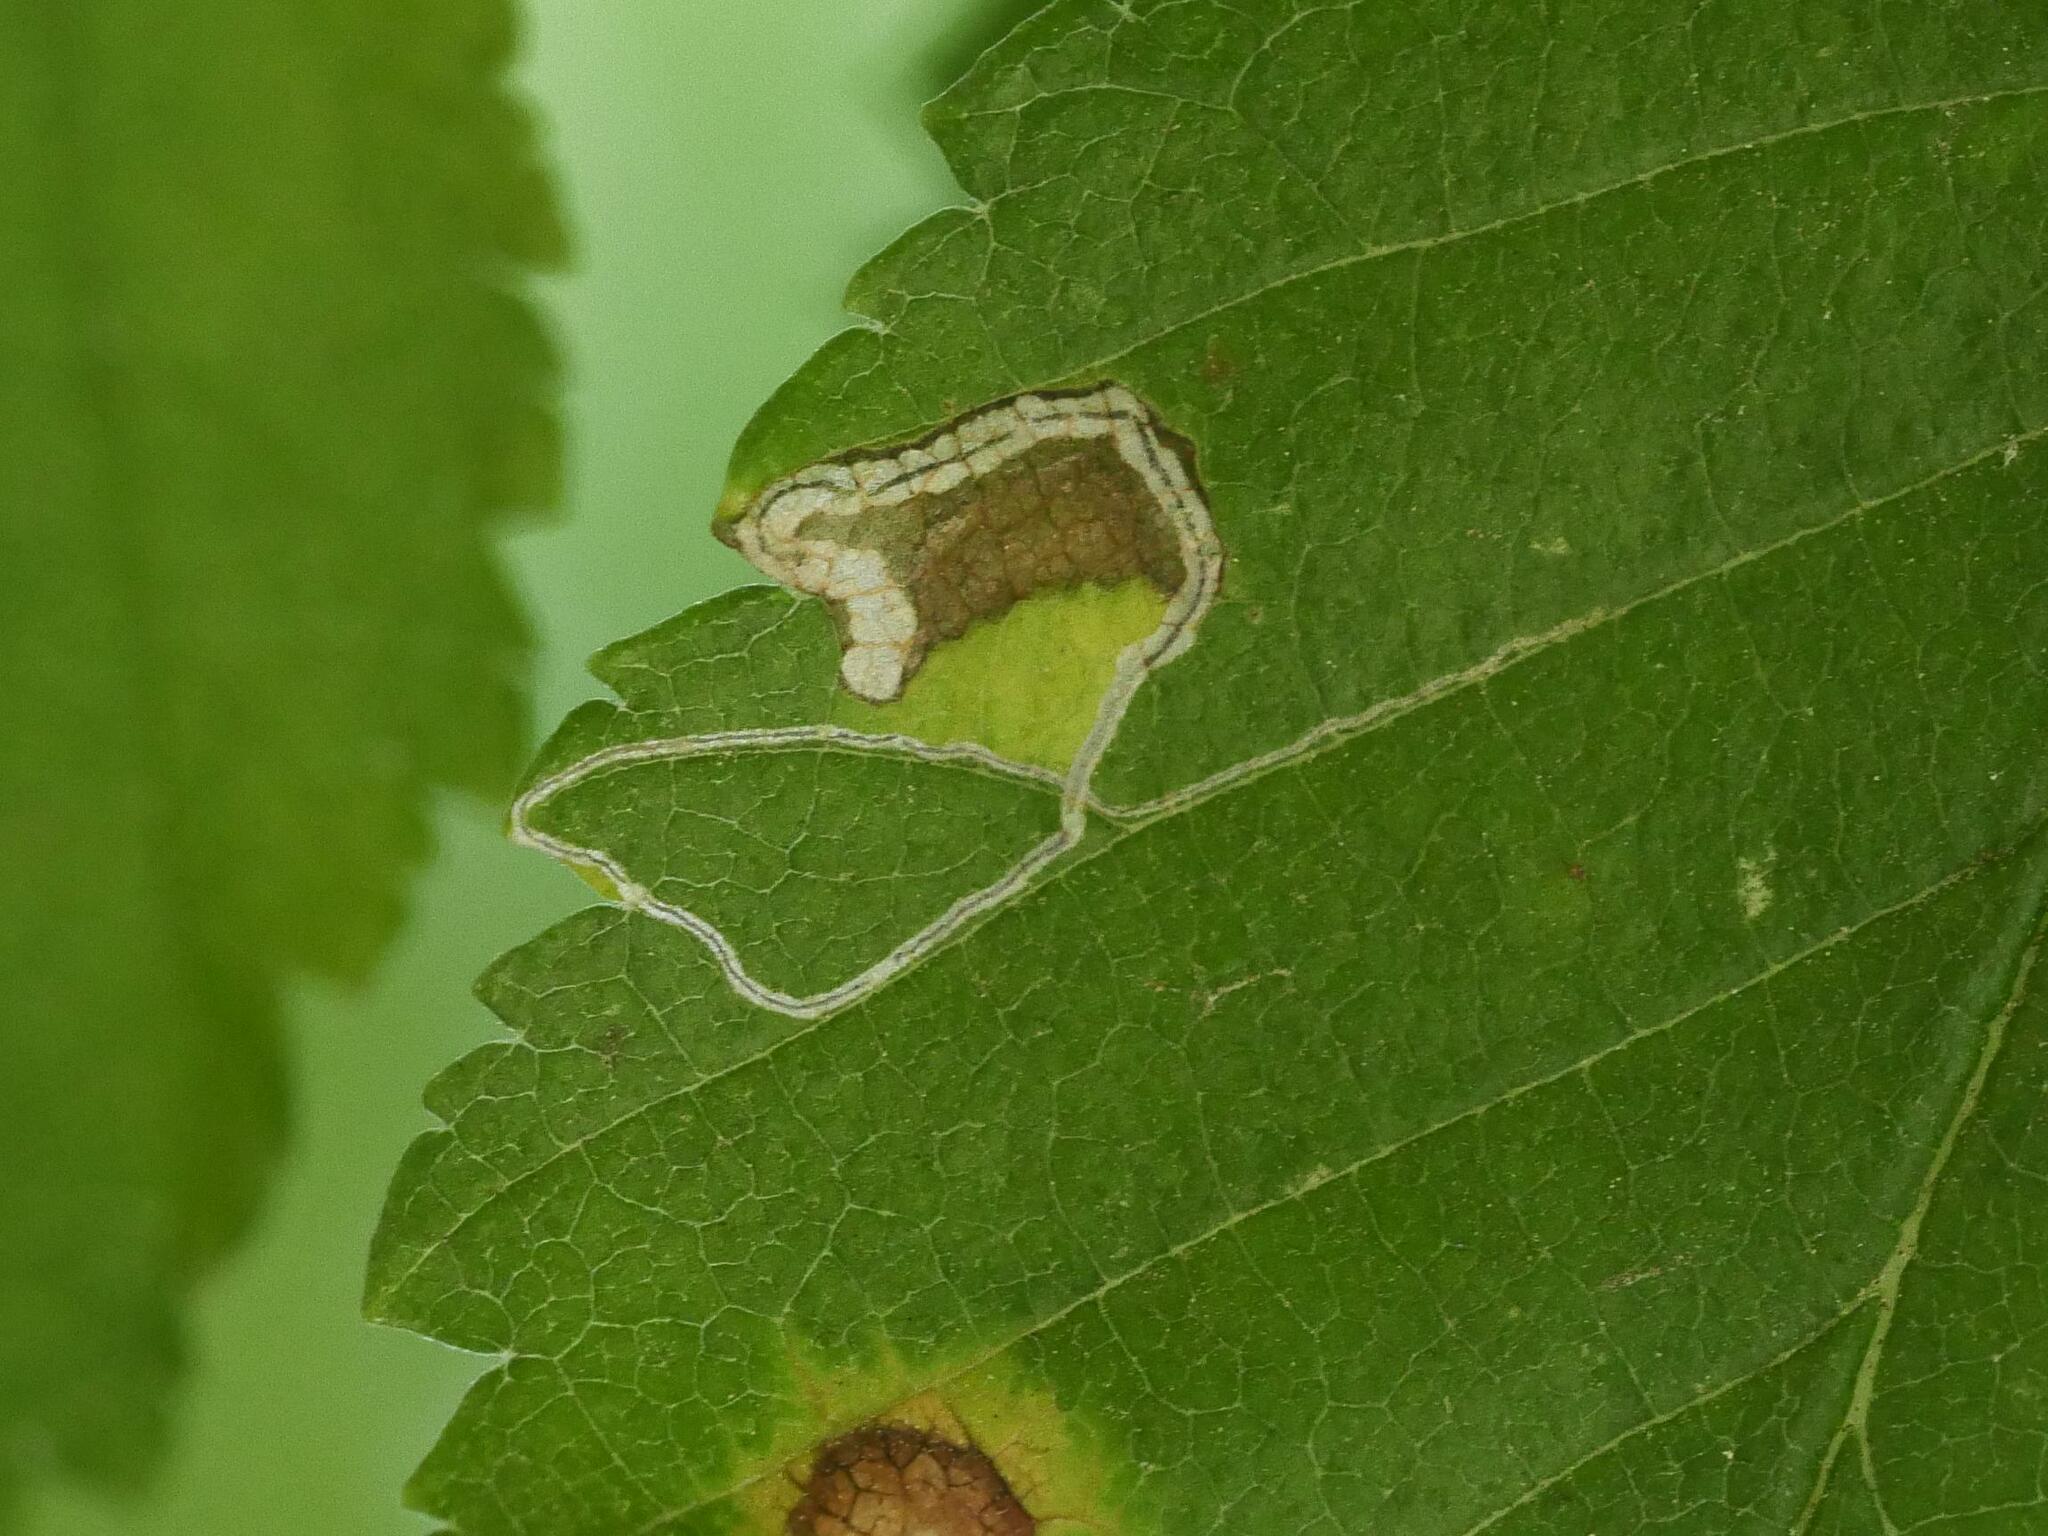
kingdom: Animalia
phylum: Arthropoda
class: Insecta
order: Lepidoptera
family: Nepticulidae
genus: Stigmella
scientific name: Stigmella ulmivora
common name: Barred elm pigmy
